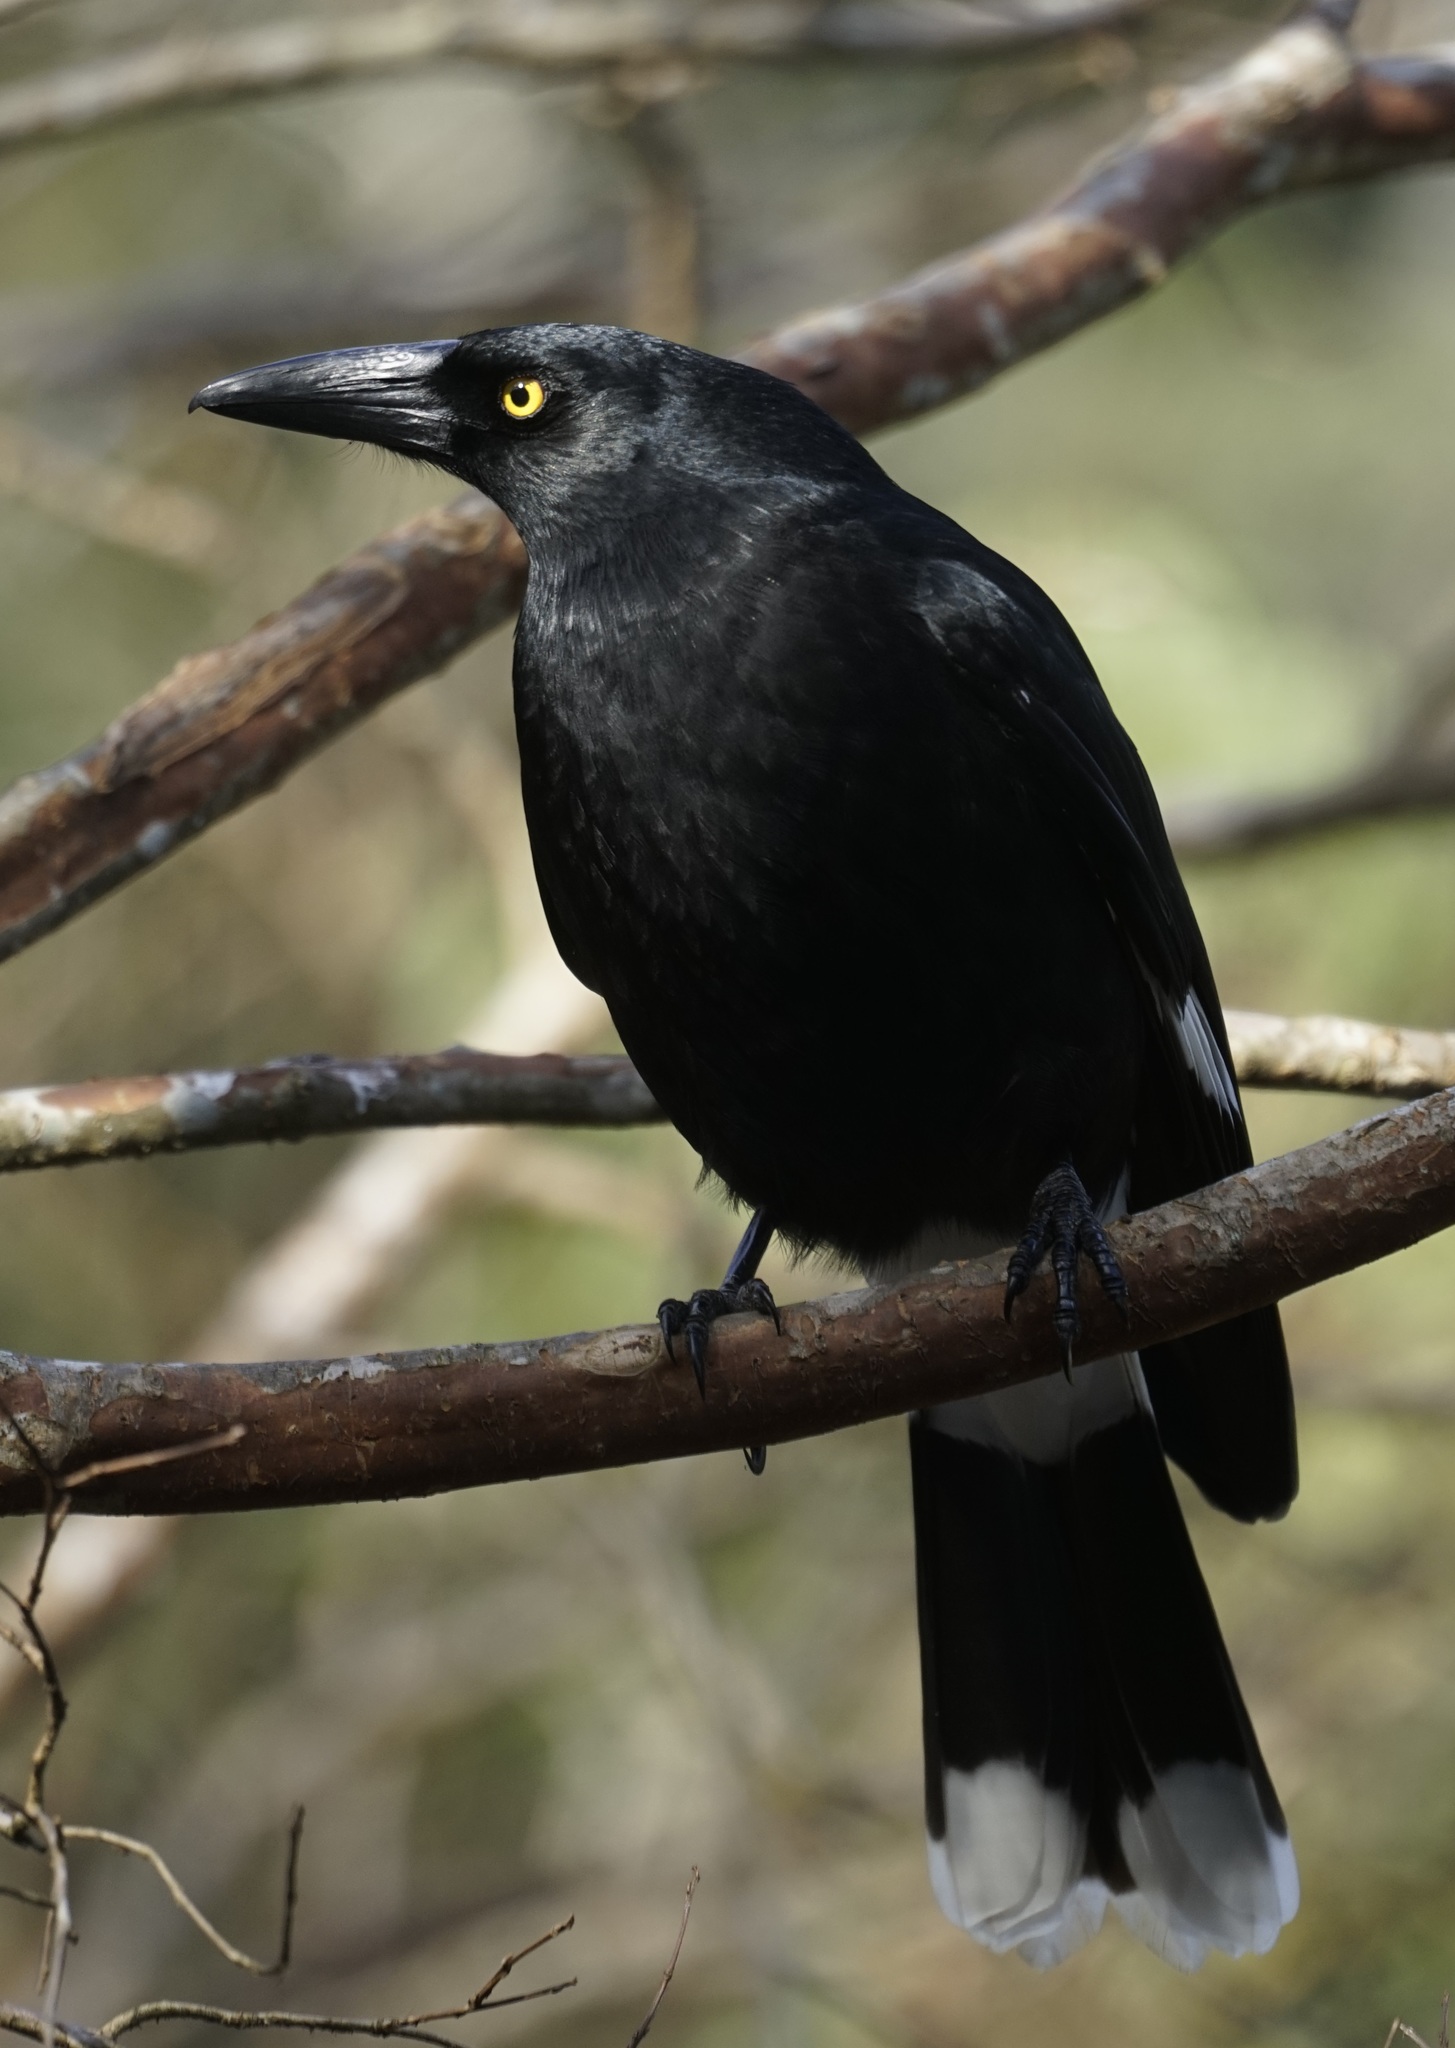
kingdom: Animalia
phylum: Chordata
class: Aves
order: Passeriformes
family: Cracticidae
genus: Strepera
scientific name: Strepera graculina
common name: Pied currawong
